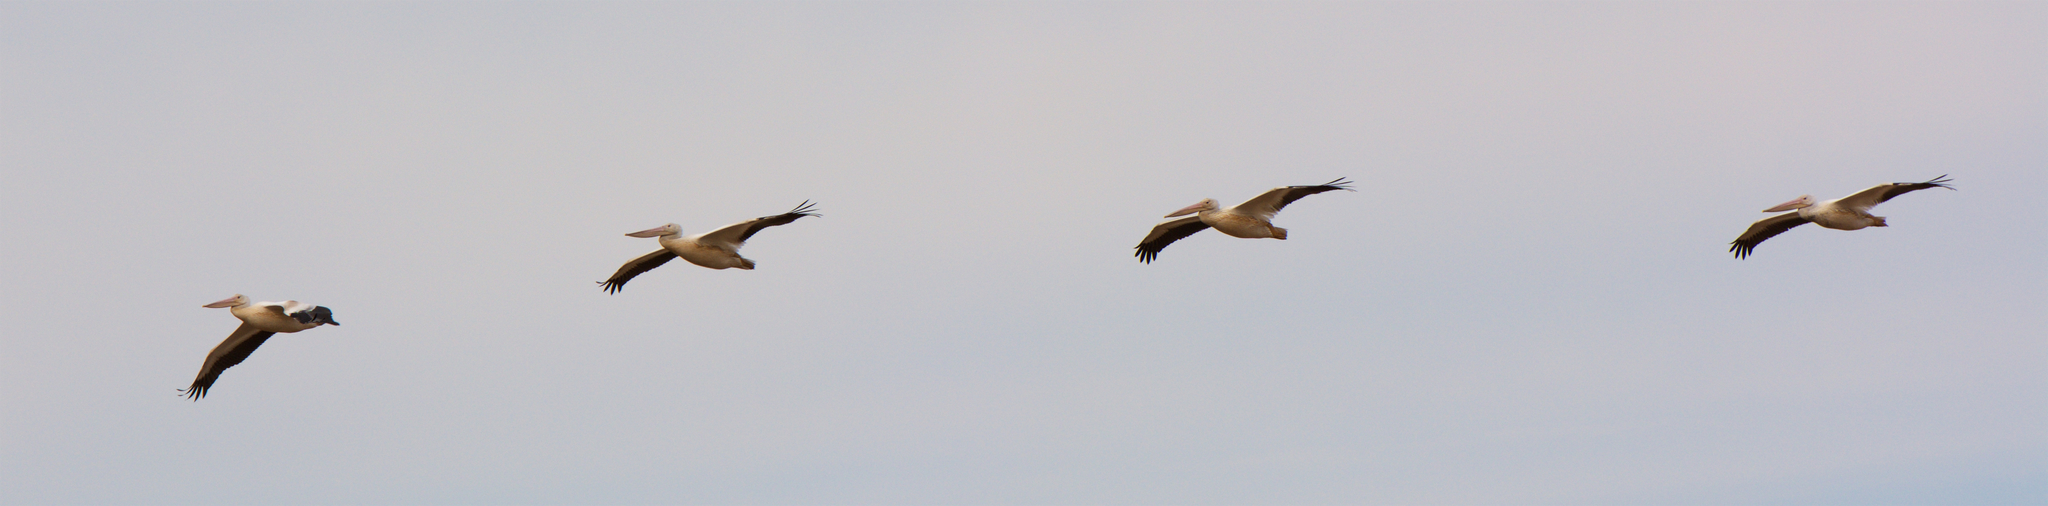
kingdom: Animalia
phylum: Chordata
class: Aves
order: Pelecaniformes
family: Pelecanidae
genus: Pelecanus
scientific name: Pelecanus erythrorhynchos
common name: American white pelican
